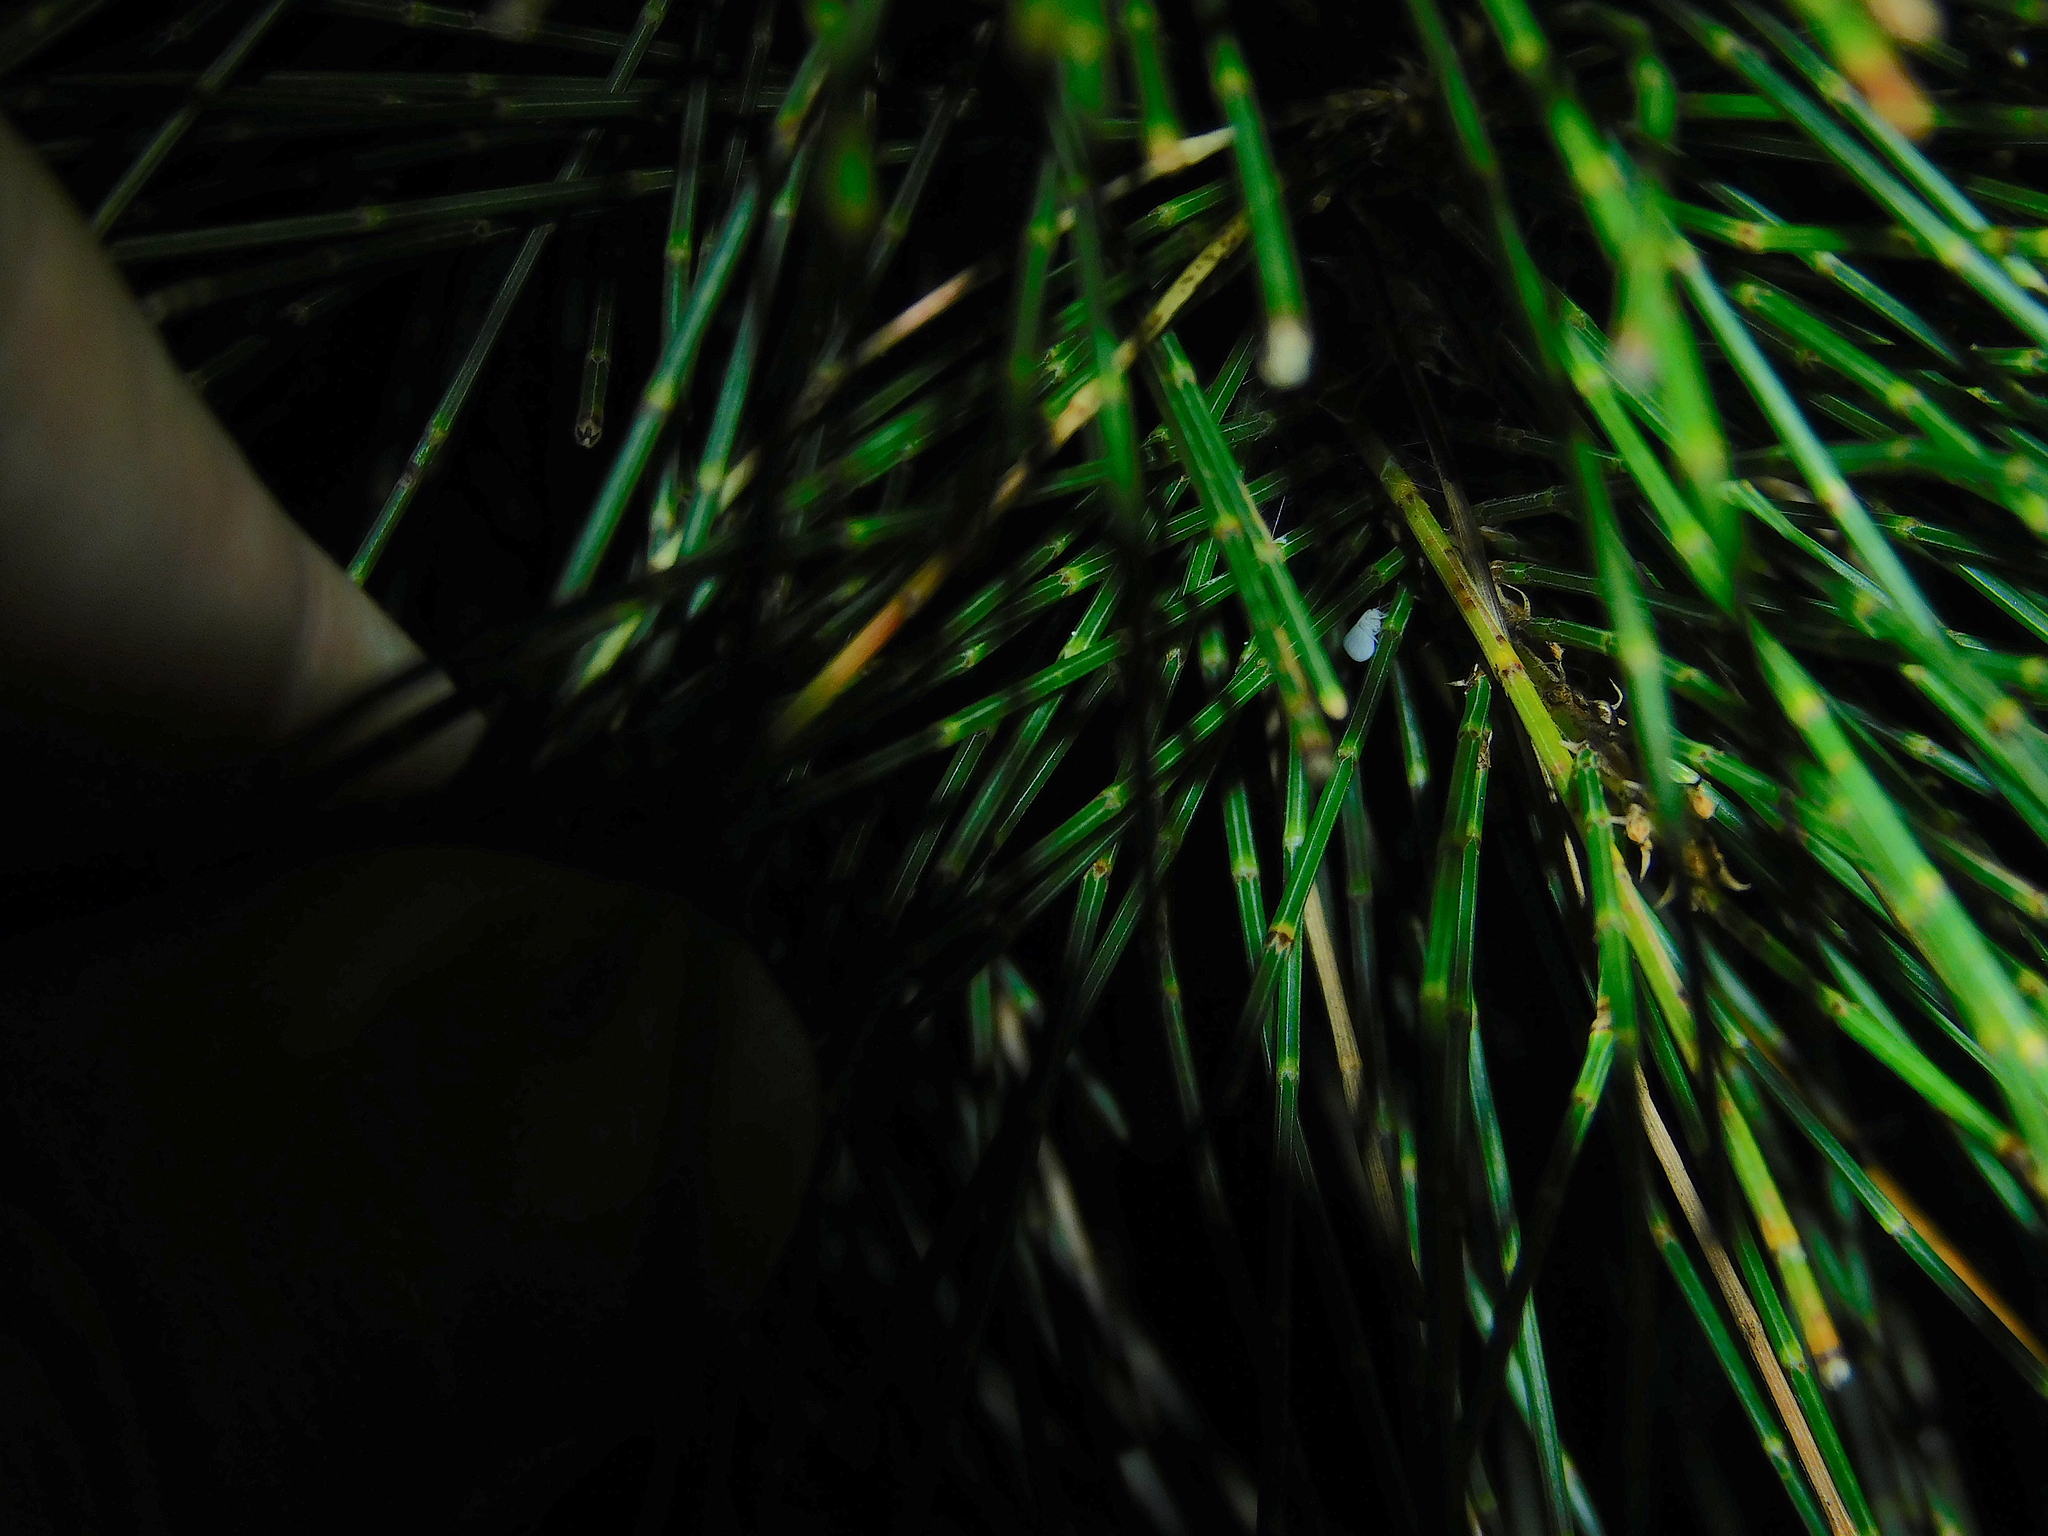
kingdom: Animalia
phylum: Arthropoda
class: Insecta
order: Neuroptera
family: Coniopterygidae
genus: Cryptoscenea
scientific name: Cryptoscenea australiensis
